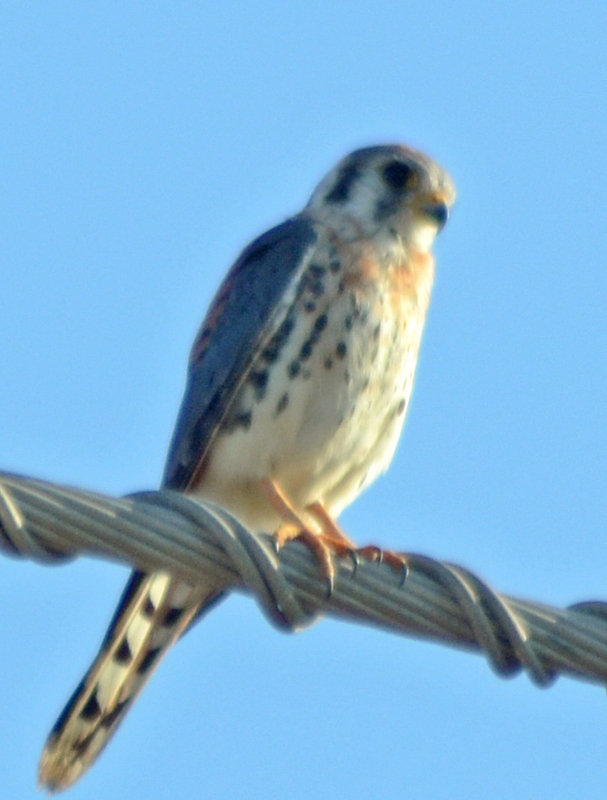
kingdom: Animalia
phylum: Chordata
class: Aves
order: Falconiformes
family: Falconidae
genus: Falco
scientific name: Falco sparverius
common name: American kestrel
